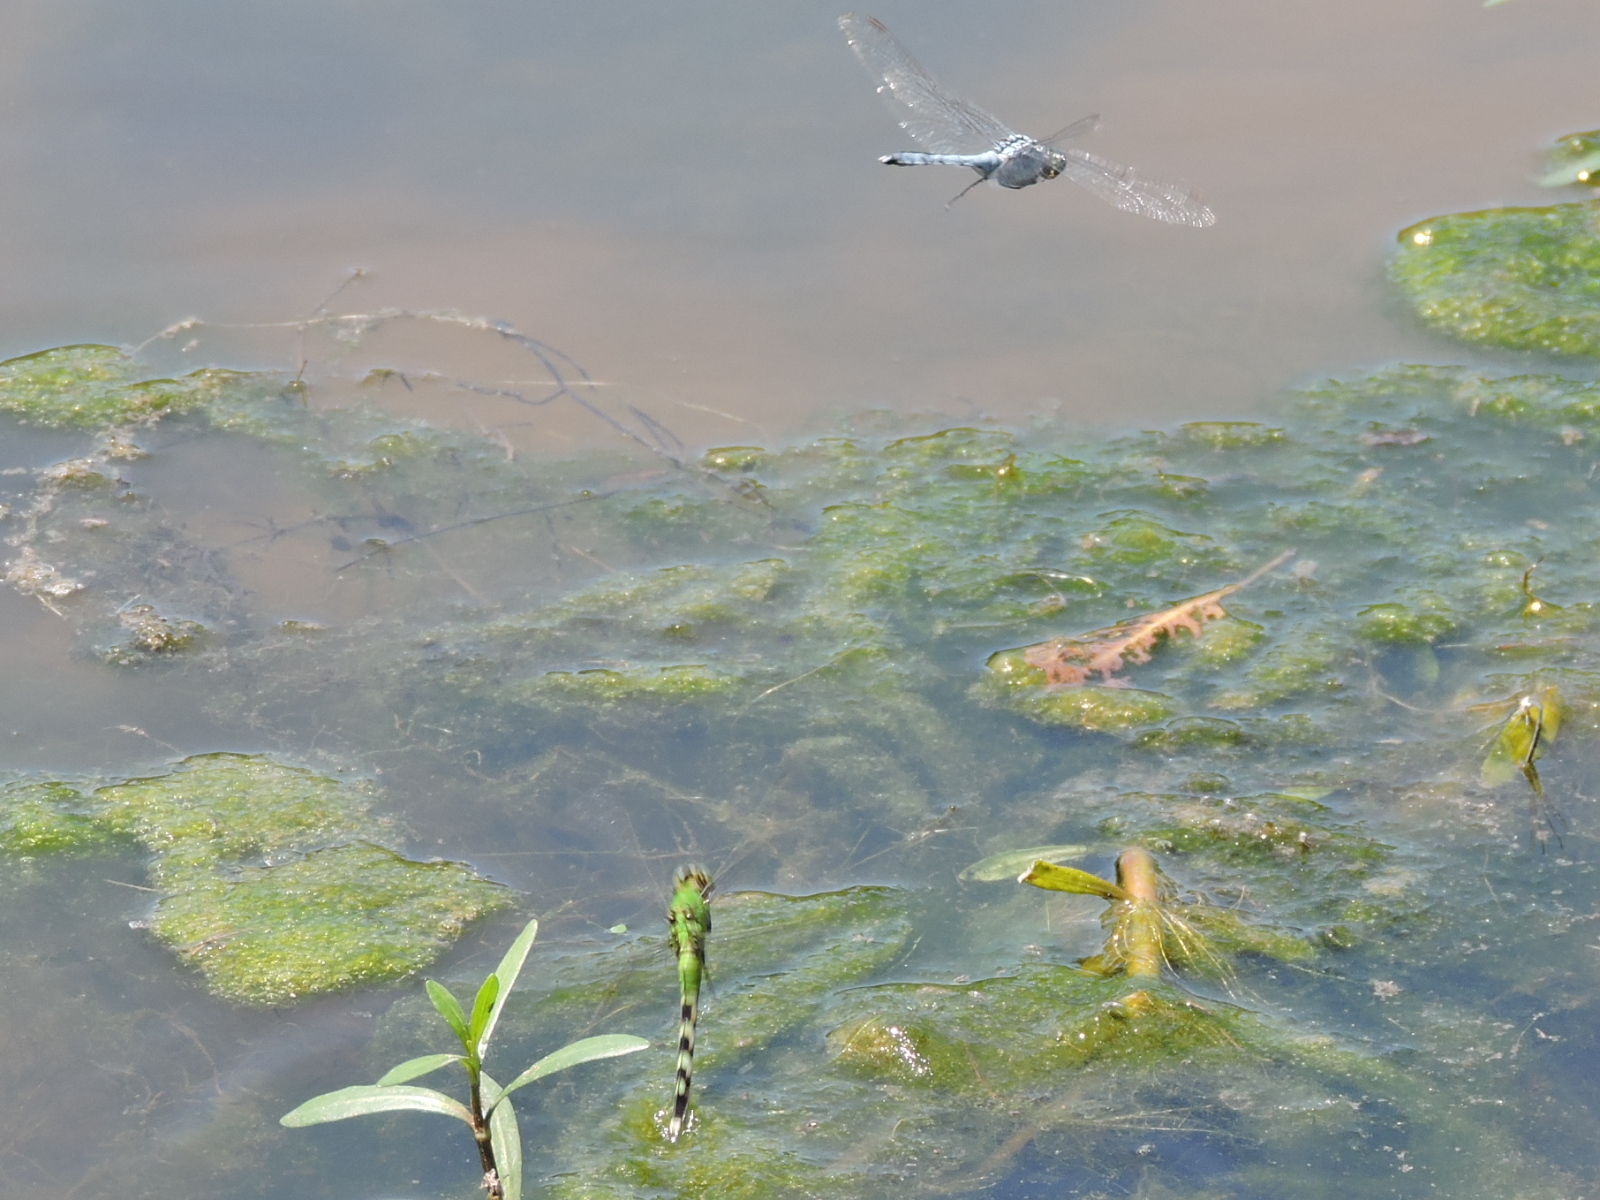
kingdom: Animalia
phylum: Arthropoda
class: Insecta
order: Odonata
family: Libellulidae
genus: Erythemis
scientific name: Erythemis simplicicollis
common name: Eastern pondhawk
